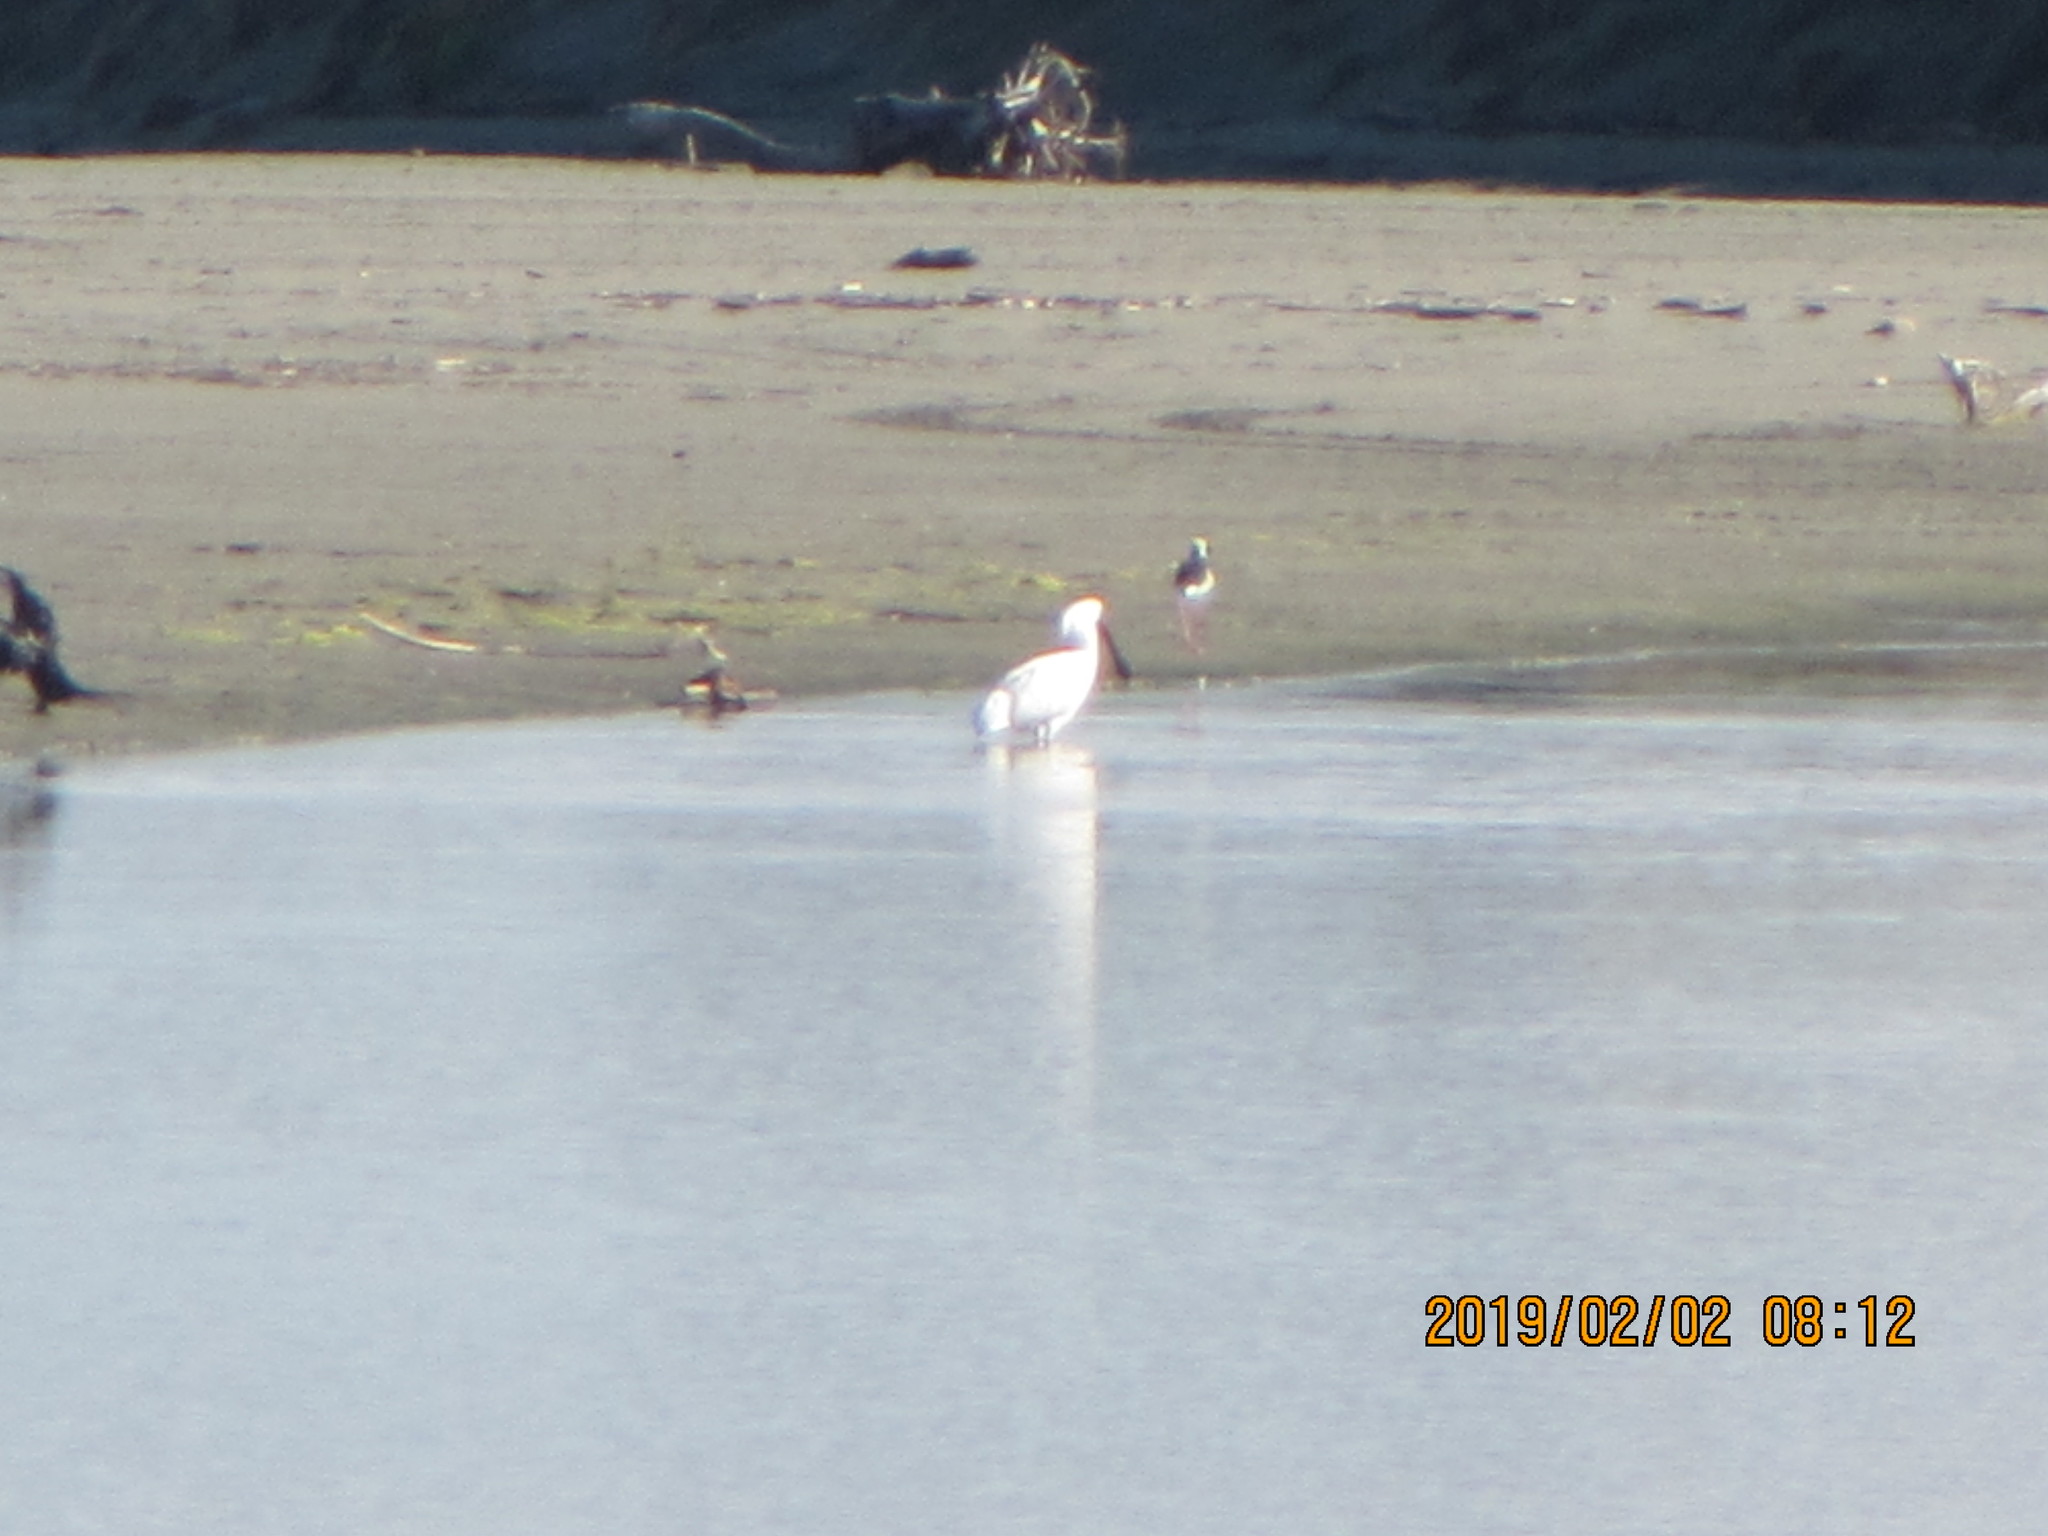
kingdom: Animalia
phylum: Chordata
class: Aves
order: Pelecaniformes
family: Threskiornithidae
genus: Platalea
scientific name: Platalea regia
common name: Royal spoonbill
